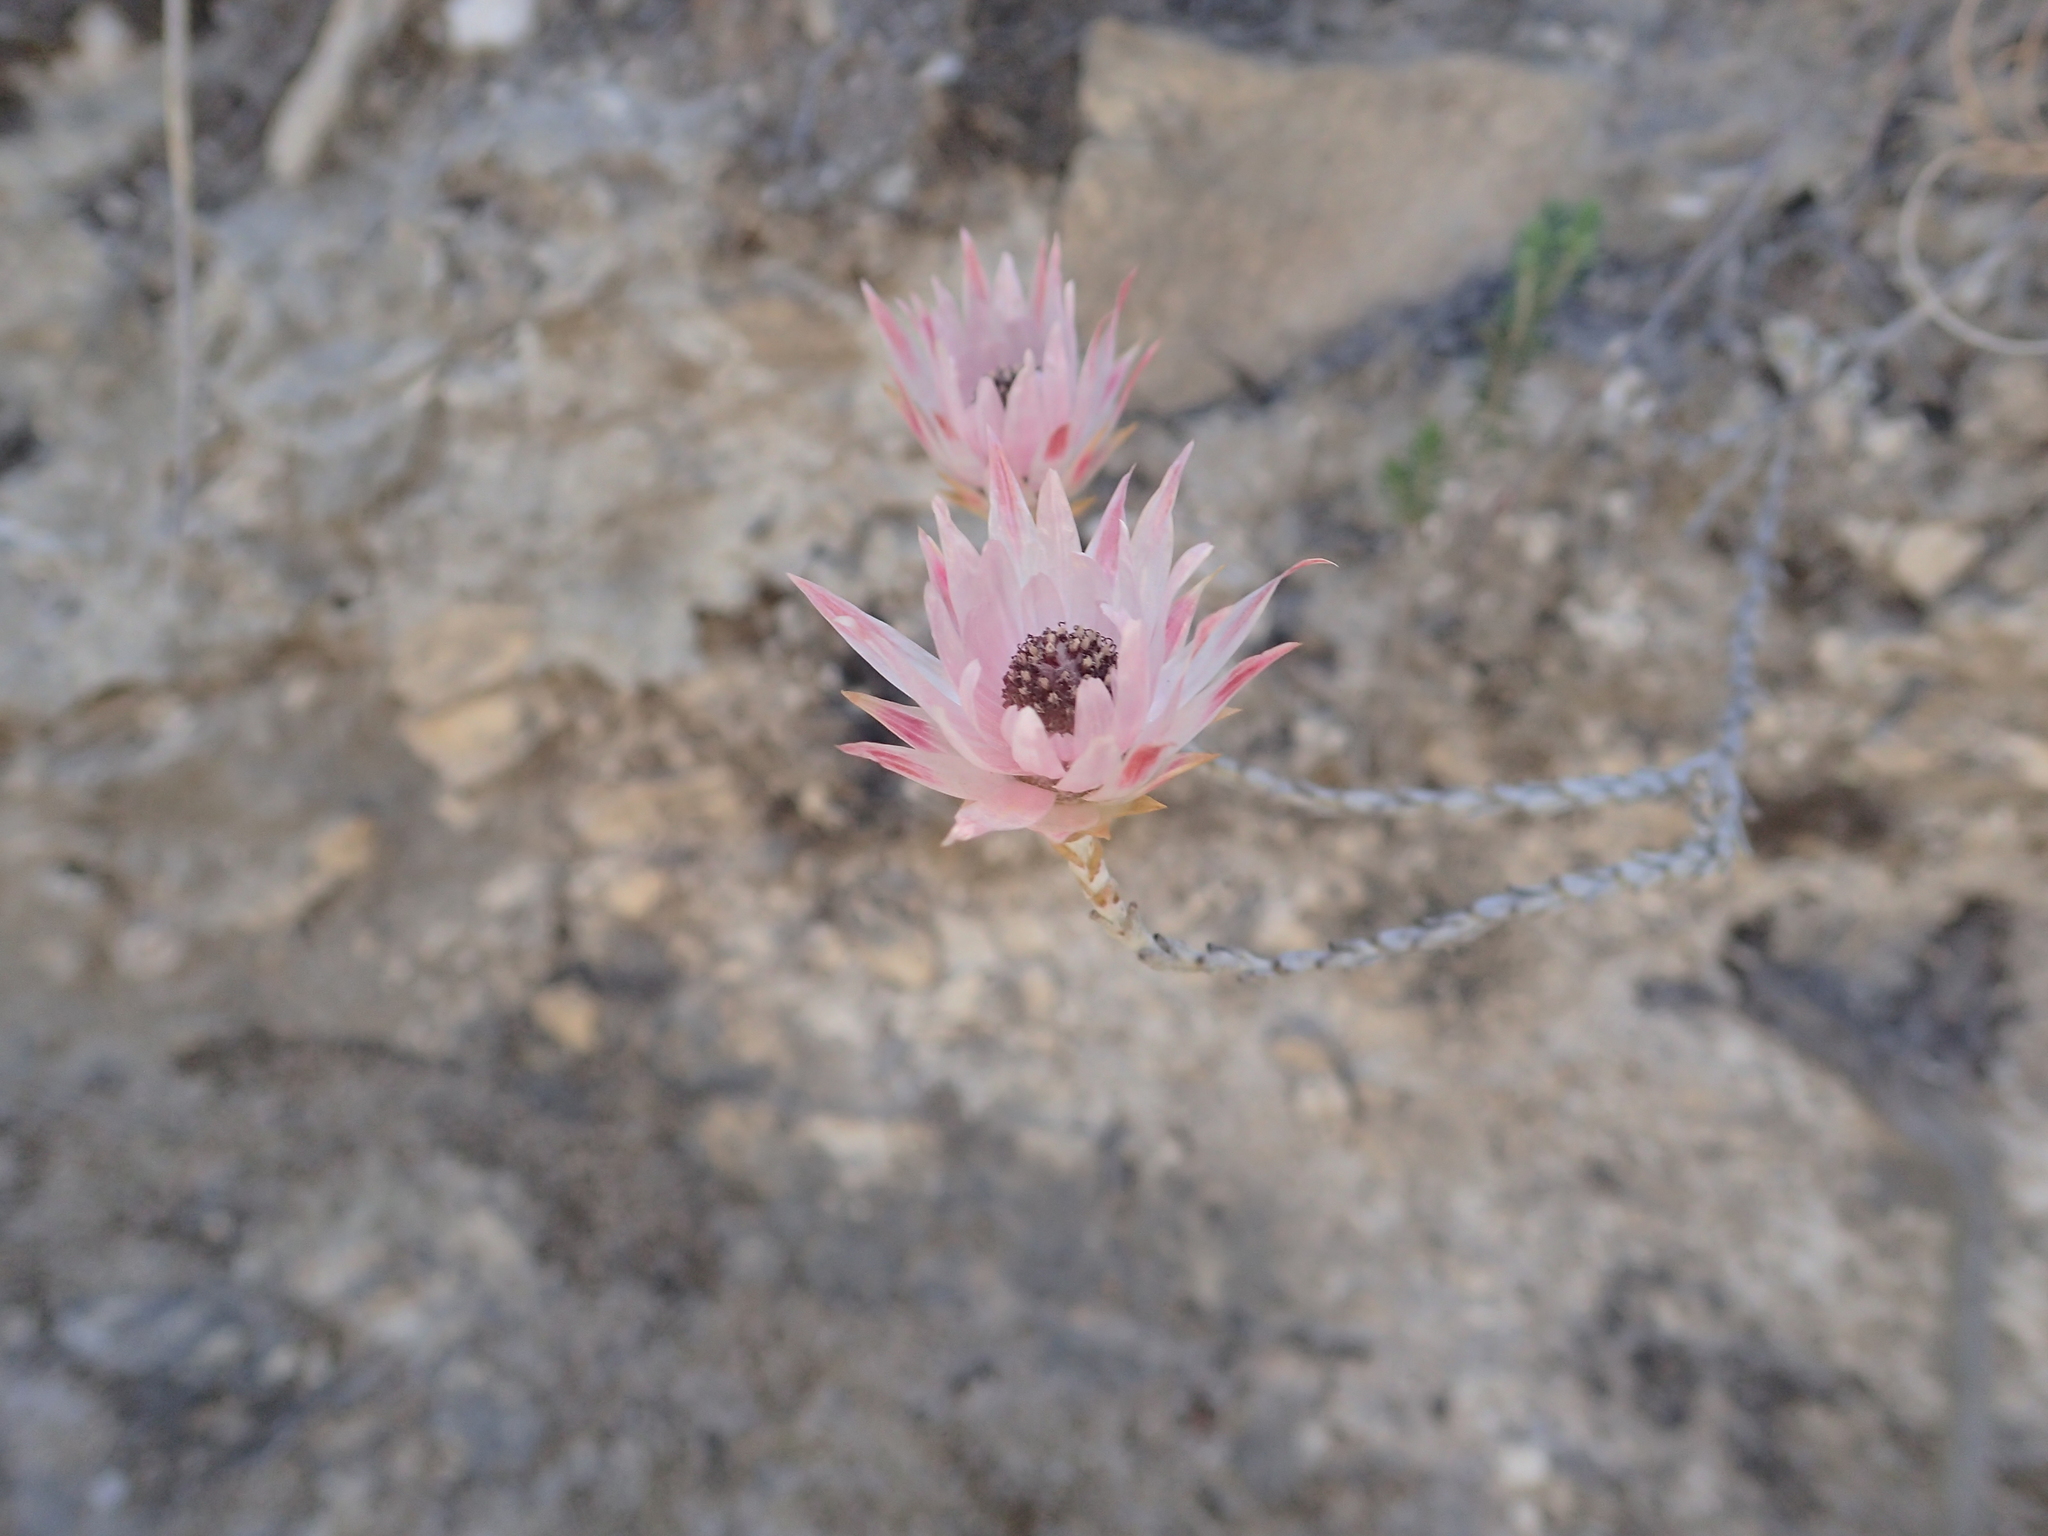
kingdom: Plantae
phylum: Tracheophyta
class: Magnoliopsida
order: Asterales
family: Asteraceae
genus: Syncarpha
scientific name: Syncarpha canescens
